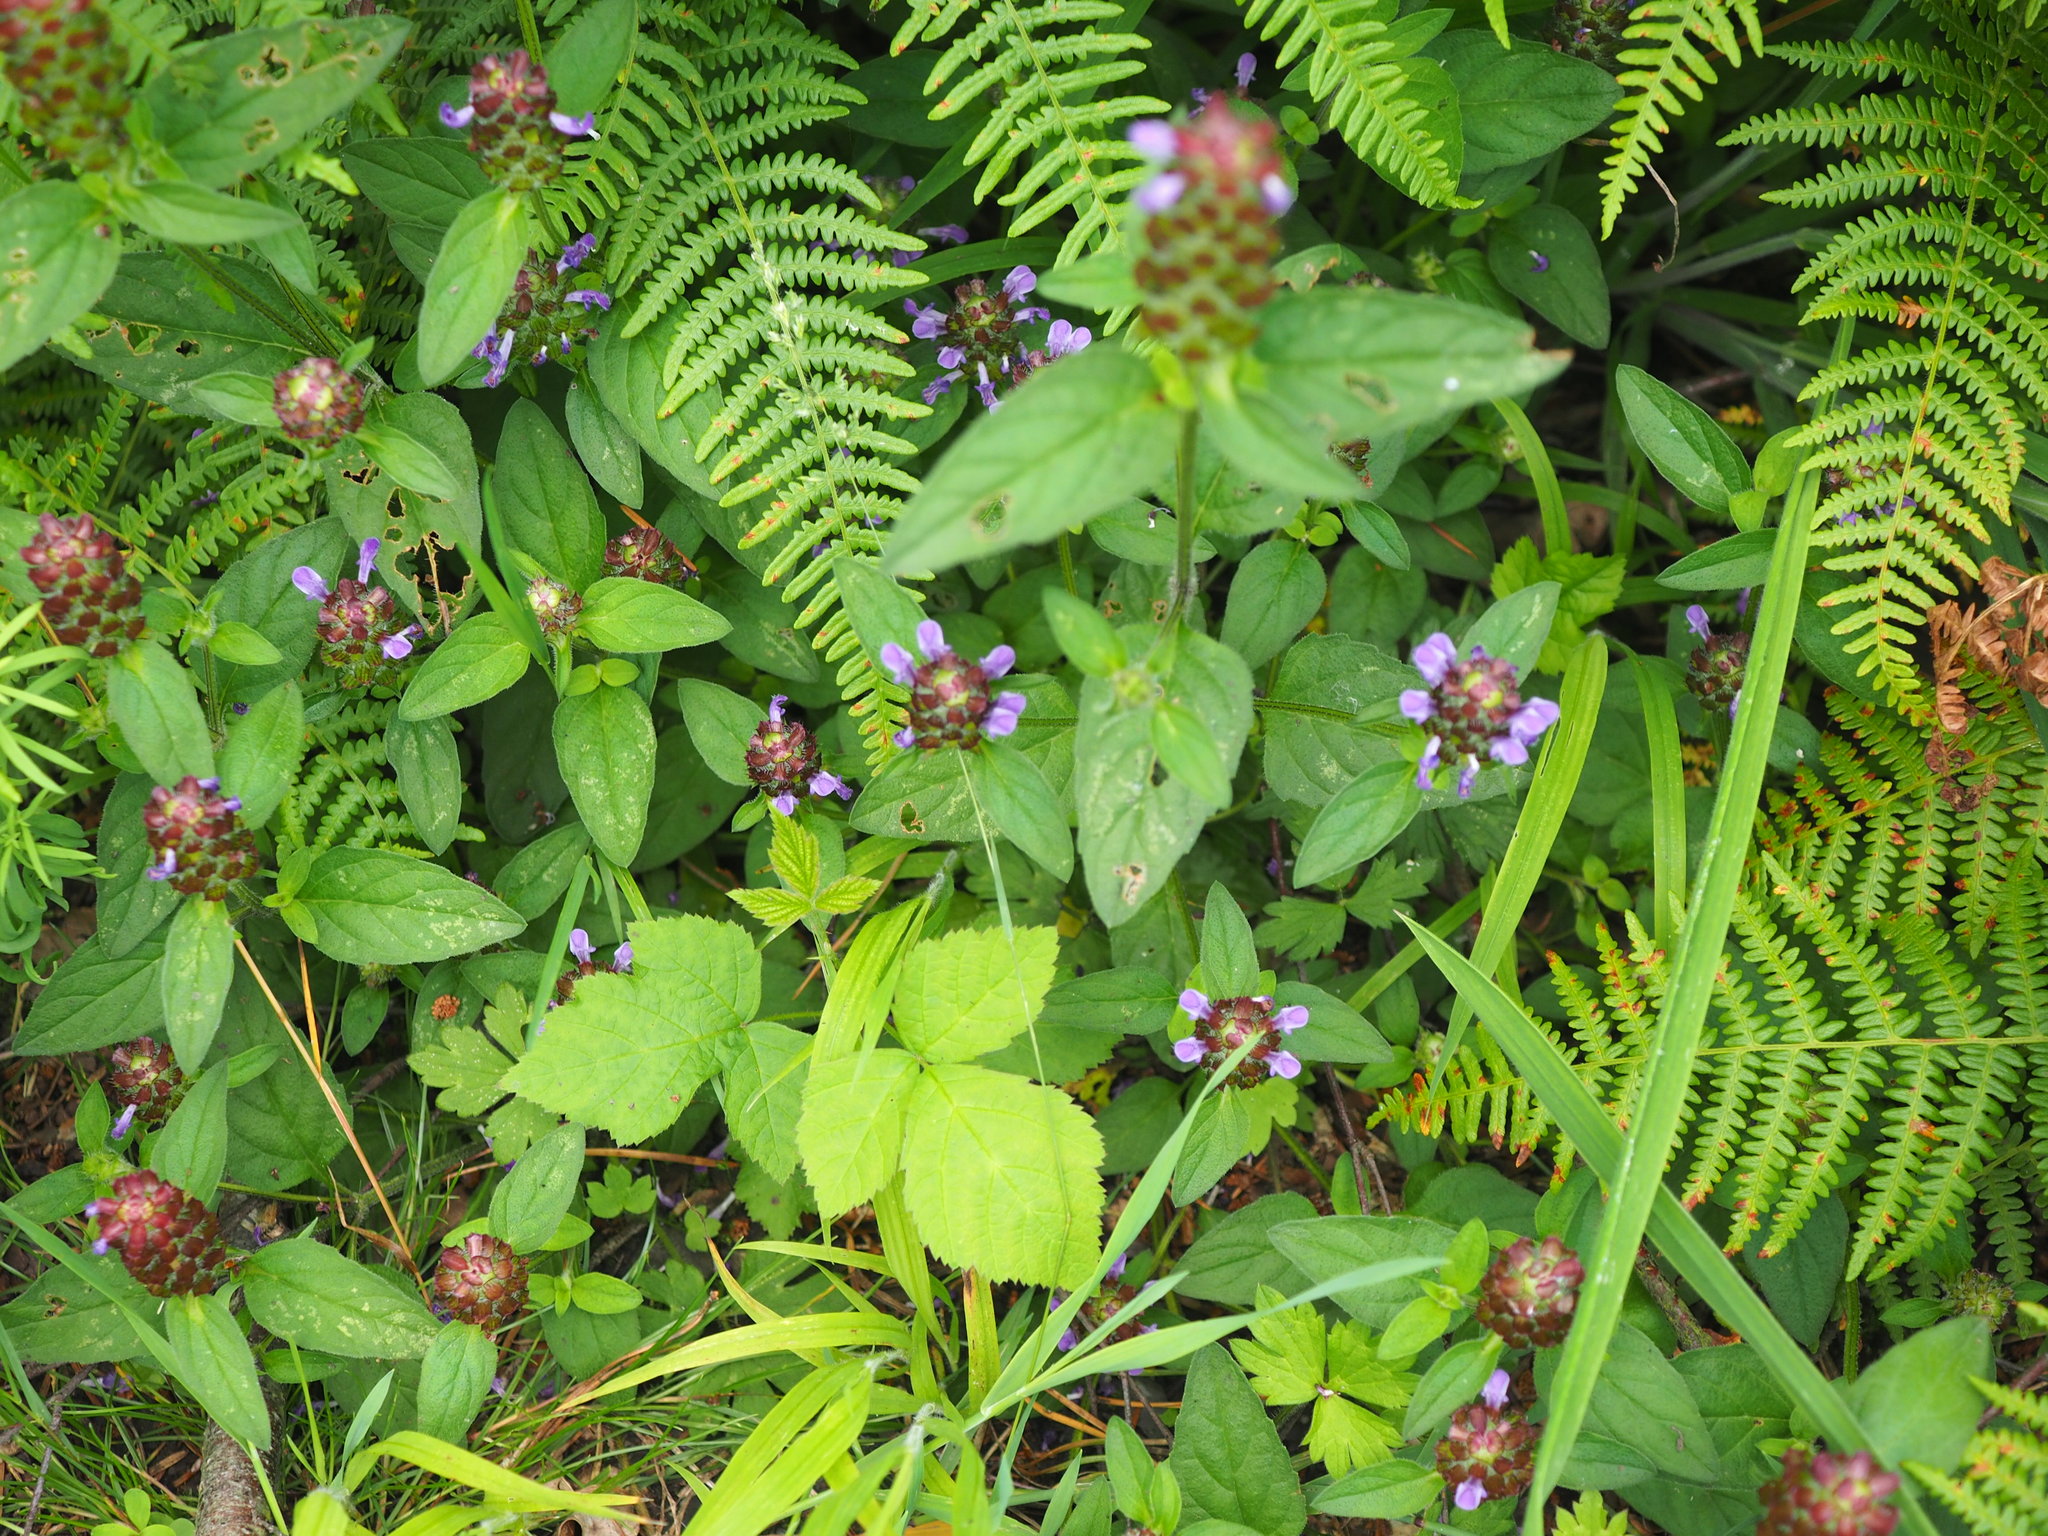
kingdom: Plantae
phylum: Tracheophyta
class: Magnoliopsida
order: Lamiales
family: Lamiaceae
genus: Prunella
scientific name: Prunella vulgaris
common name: Heal-all
